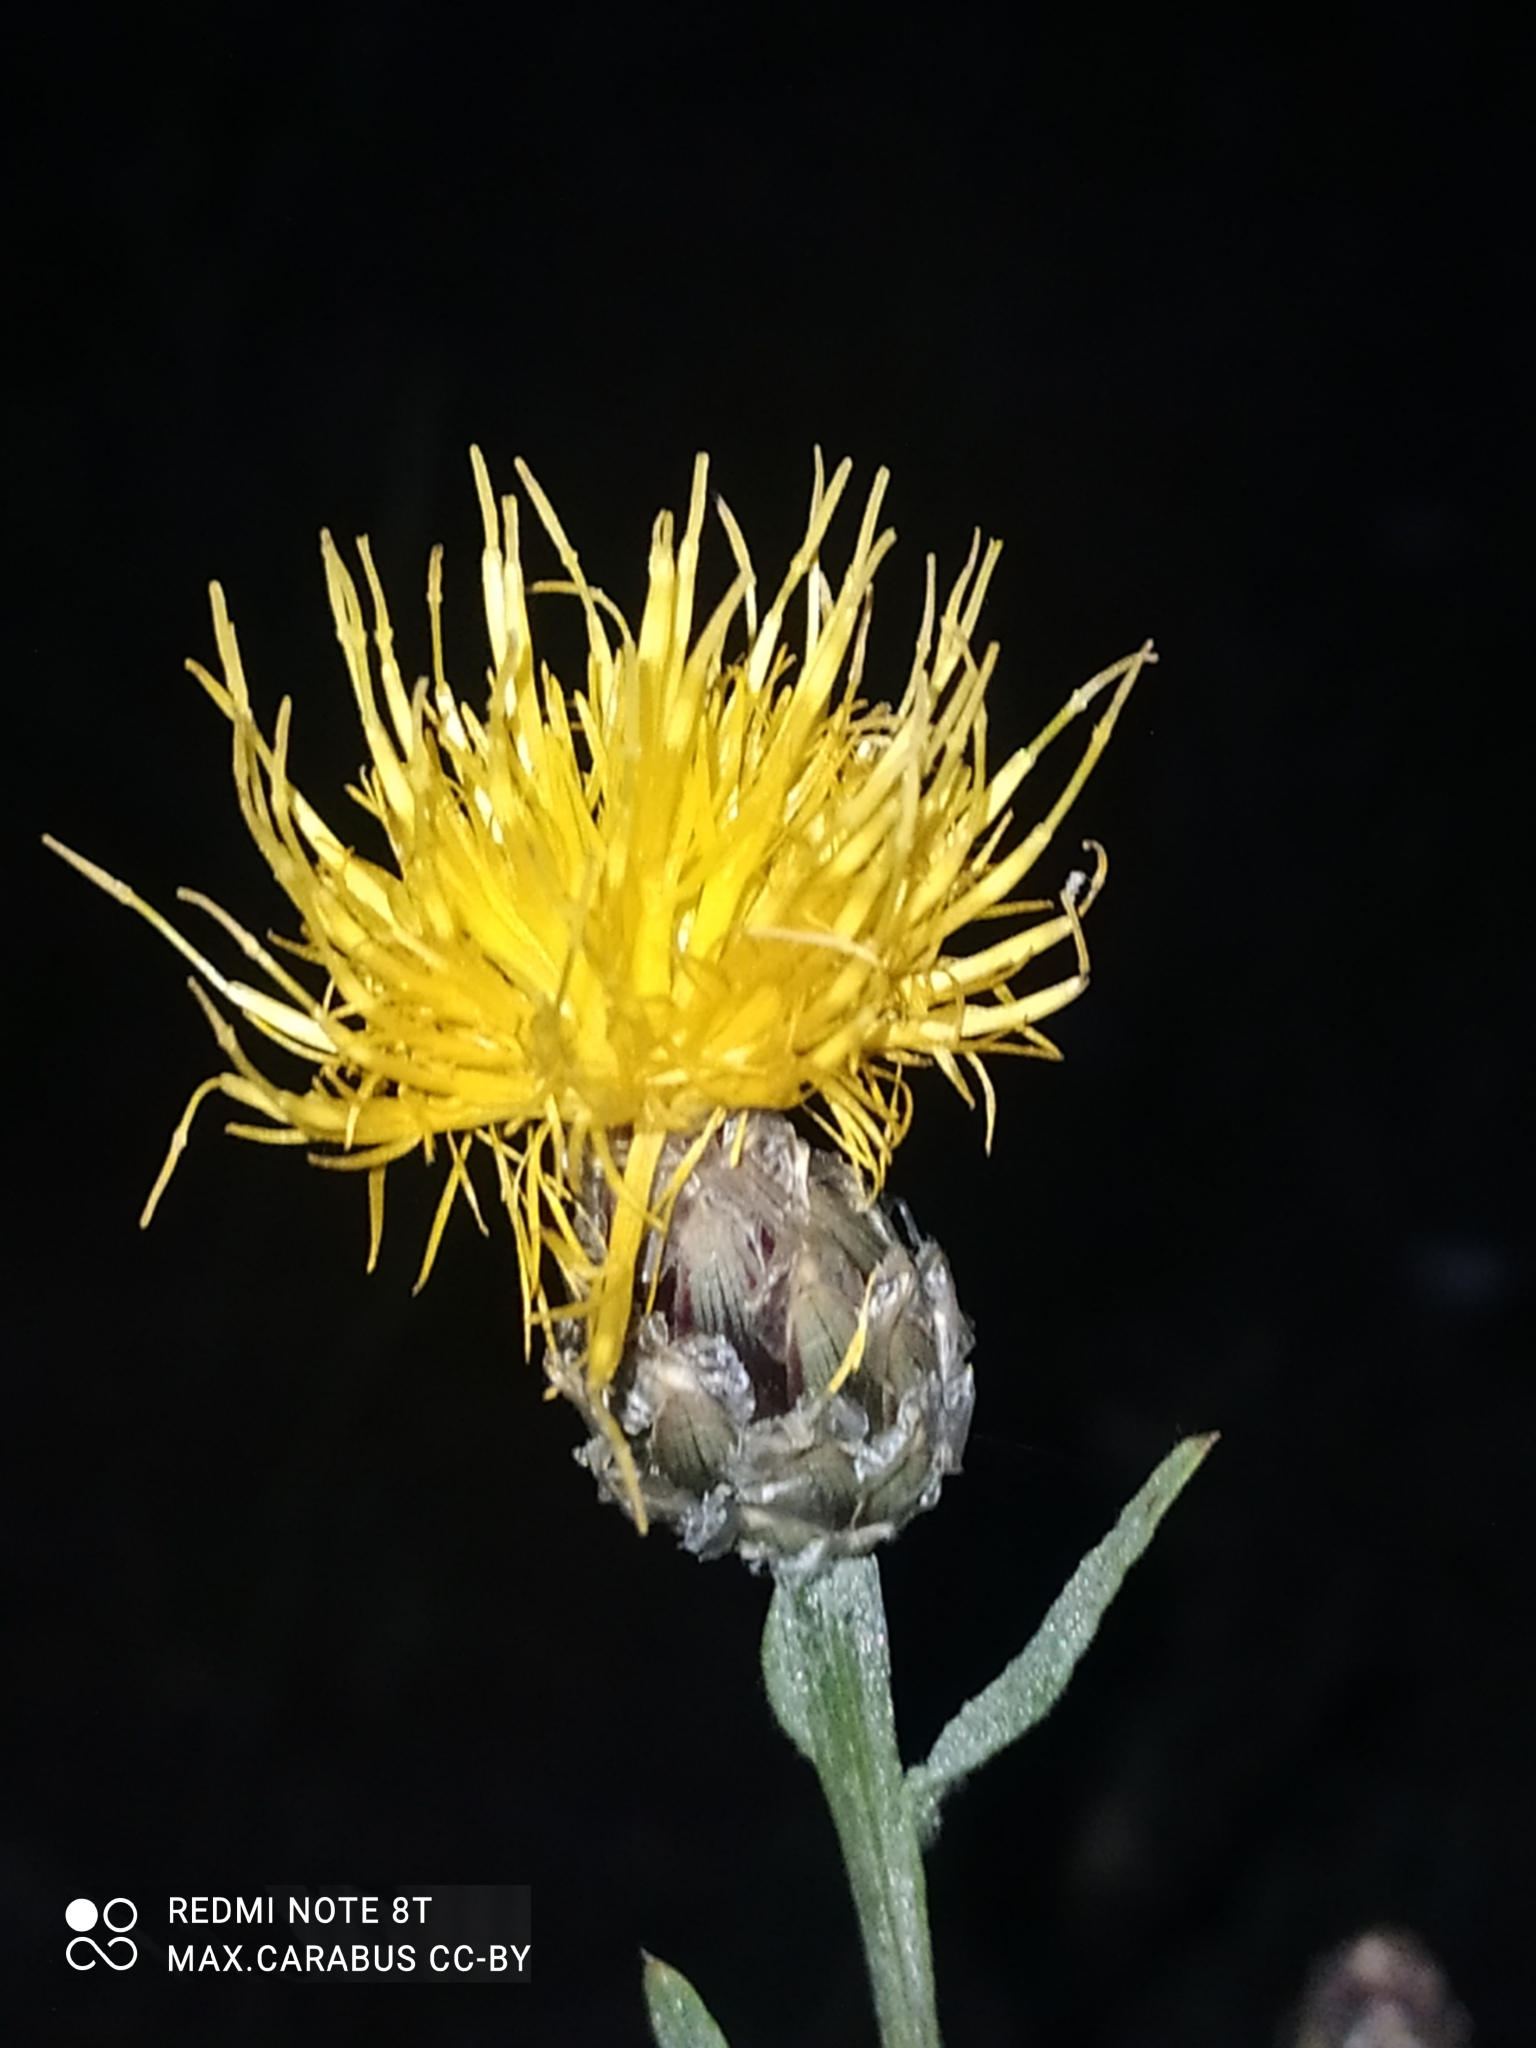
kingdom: Plantae
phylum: Tracheophyta
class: Magnoliopsida
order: Asterales
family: Asteraceae
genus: Centaurea
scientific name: Centaurea glastifolia
